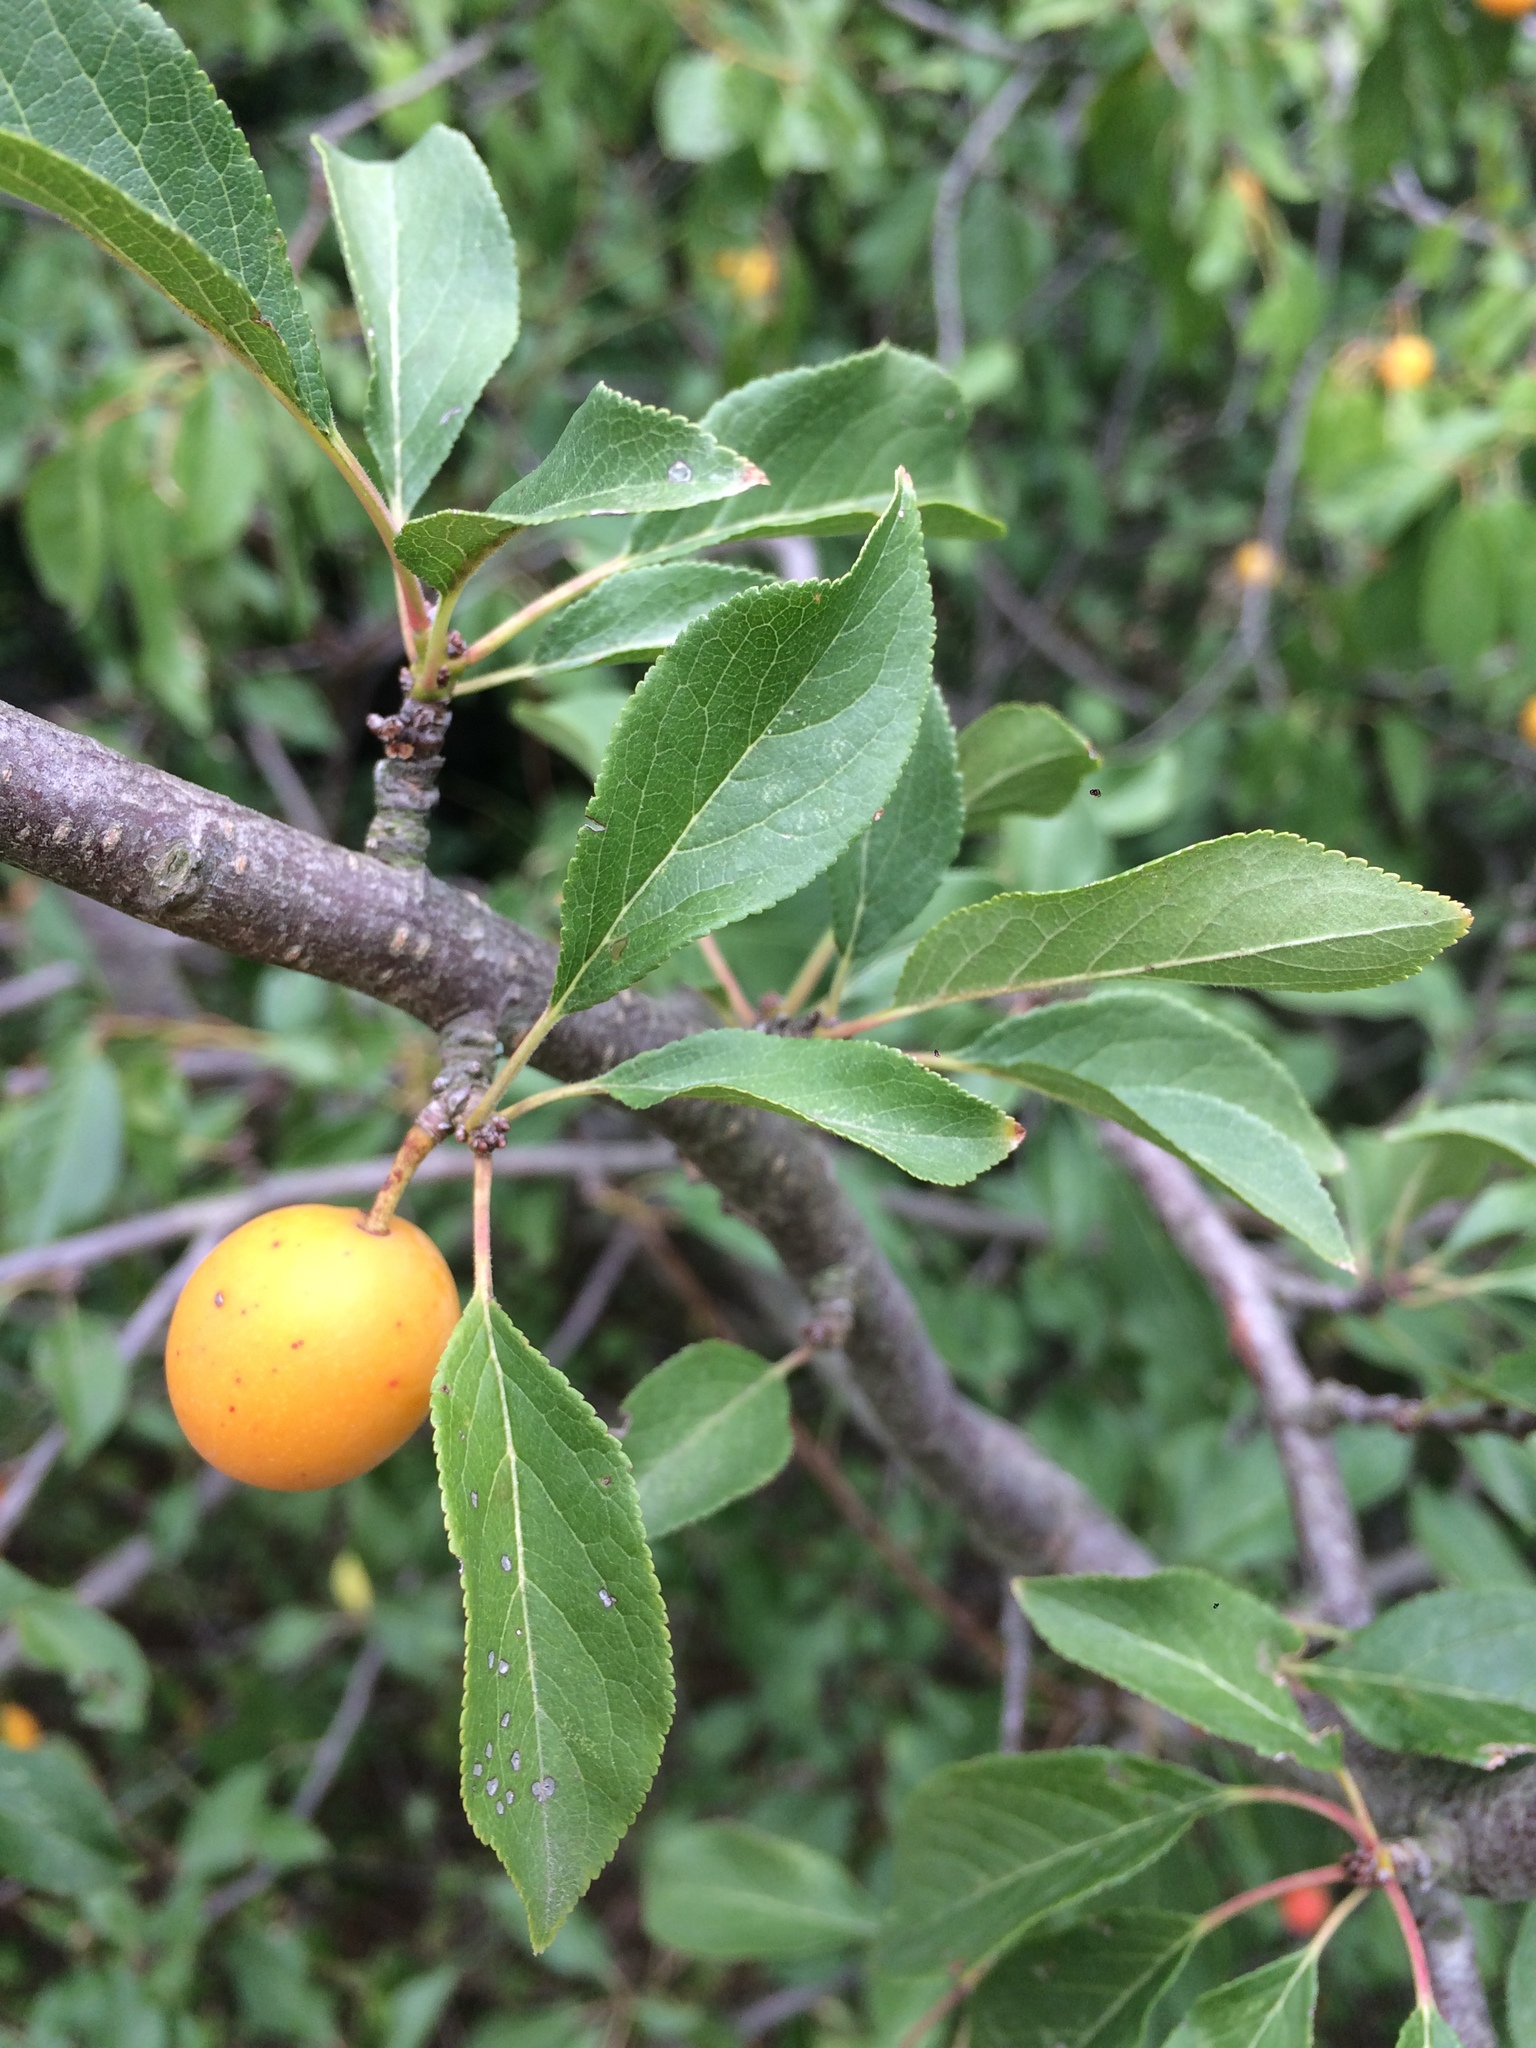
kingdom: Plantae
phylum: Tracheophyta
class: Magnoliopsida
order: Rosales
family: Rosaceae
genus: Prunus
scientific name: Prunus cerasifera
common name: Cherry plum
